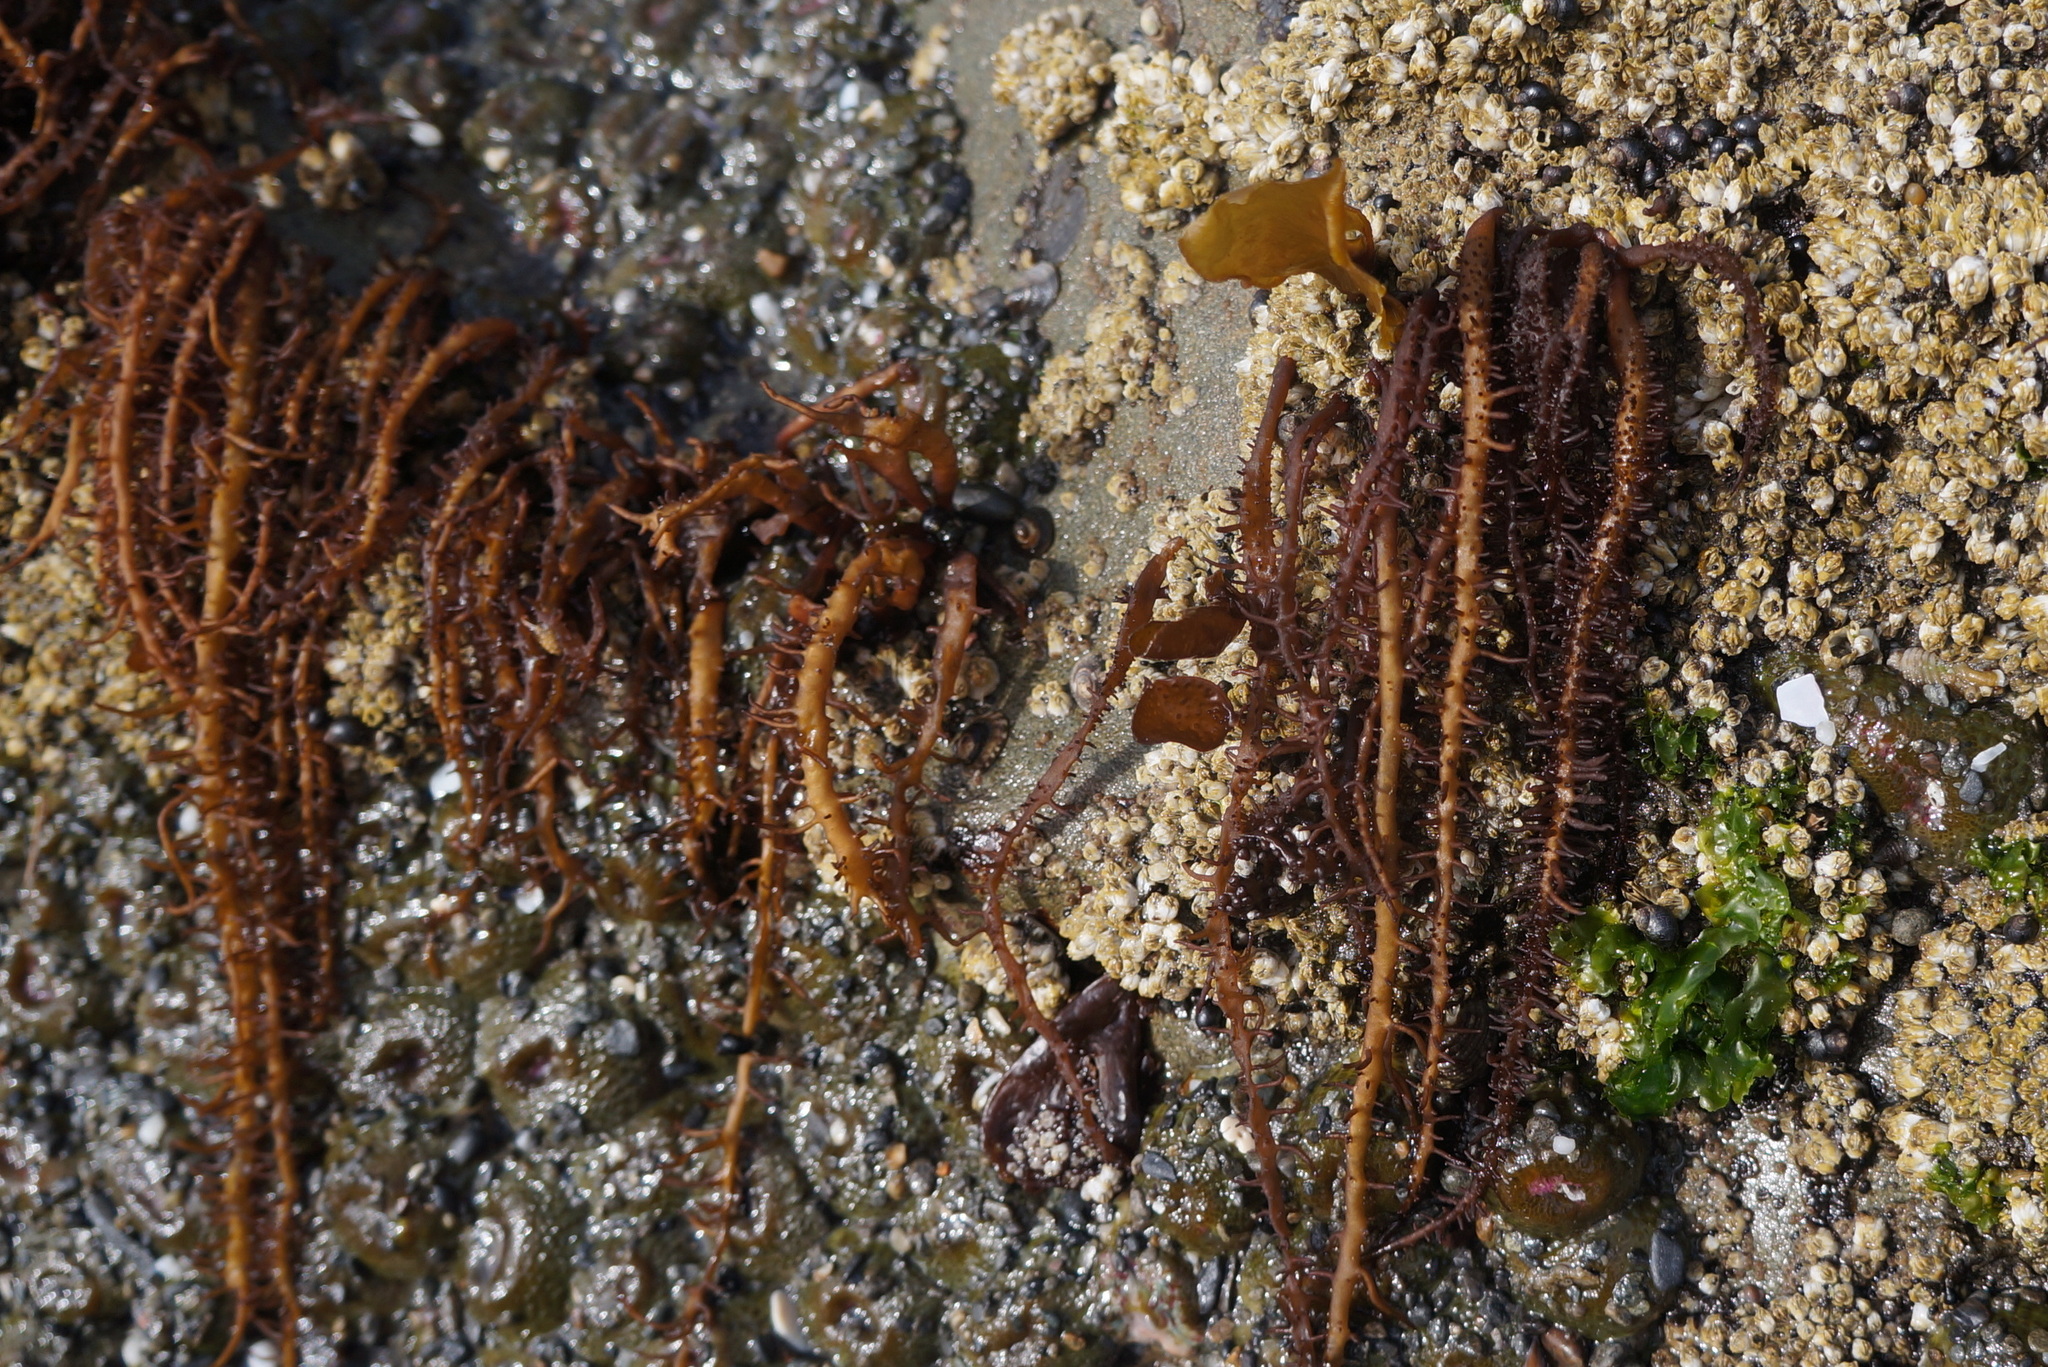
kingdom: Plantae
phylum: Rhodophyta
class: Florideophyceae
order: Nemaliales
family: Liagoraceae
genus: Cumagloia
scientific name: Cumagloia andersonii
